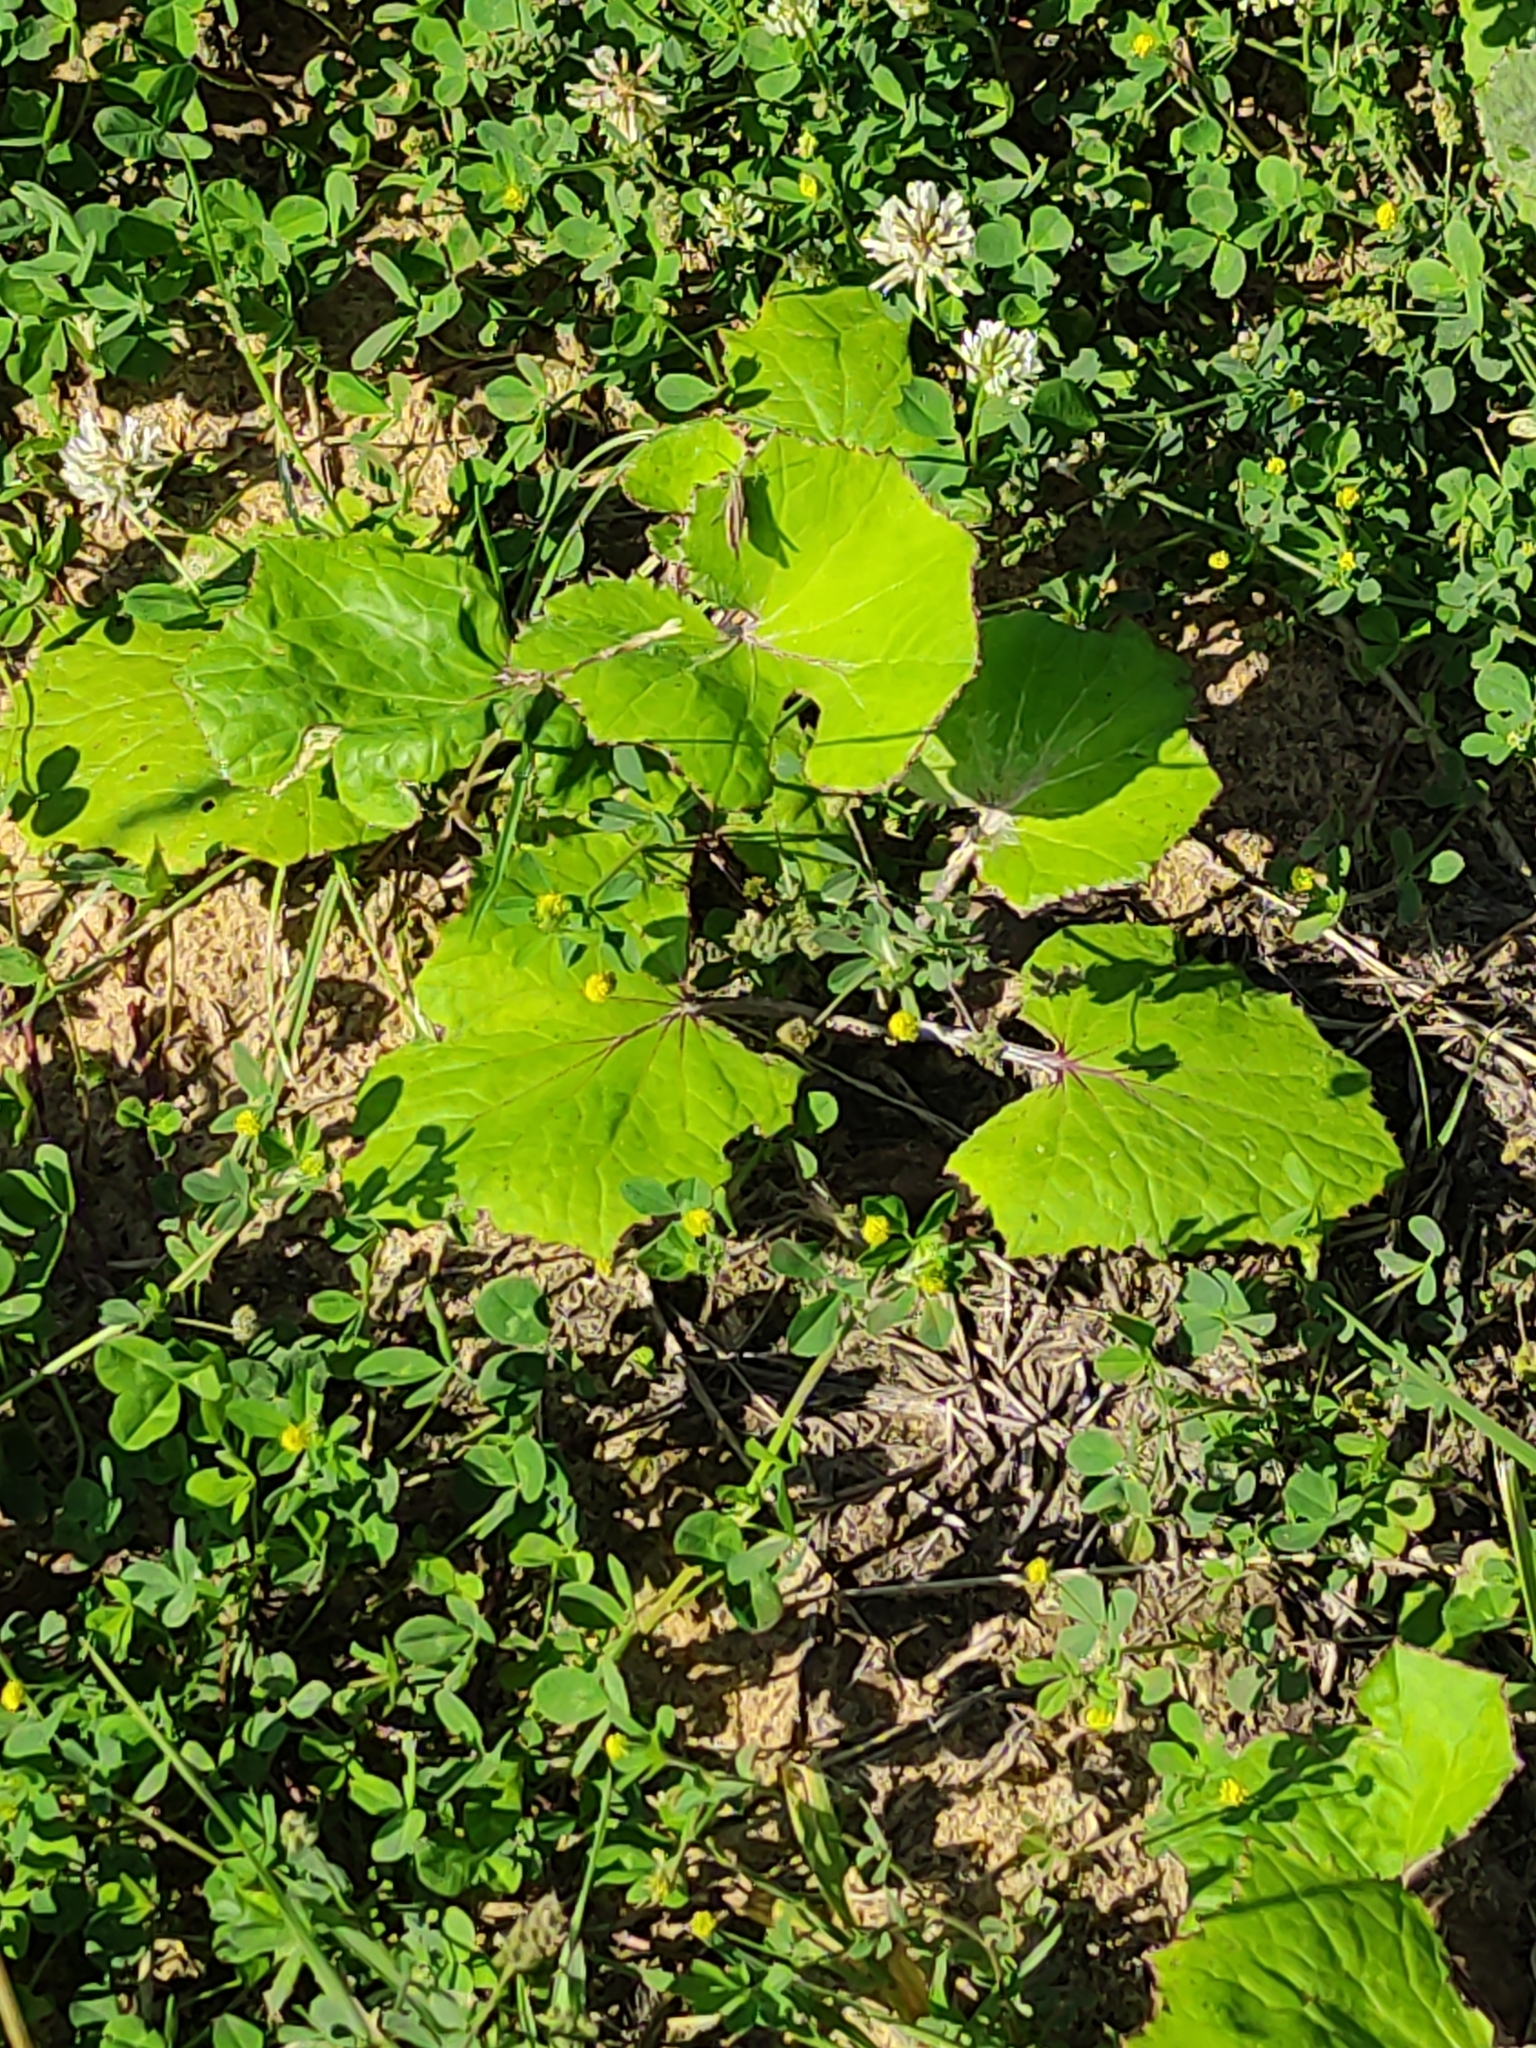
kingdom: Plantae
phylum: Tracheophyta
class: Magnoliopsida
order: Asterales
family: Asteraceae
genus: Tussilago
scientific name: Tussilago farfara
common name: Coltsfoot
